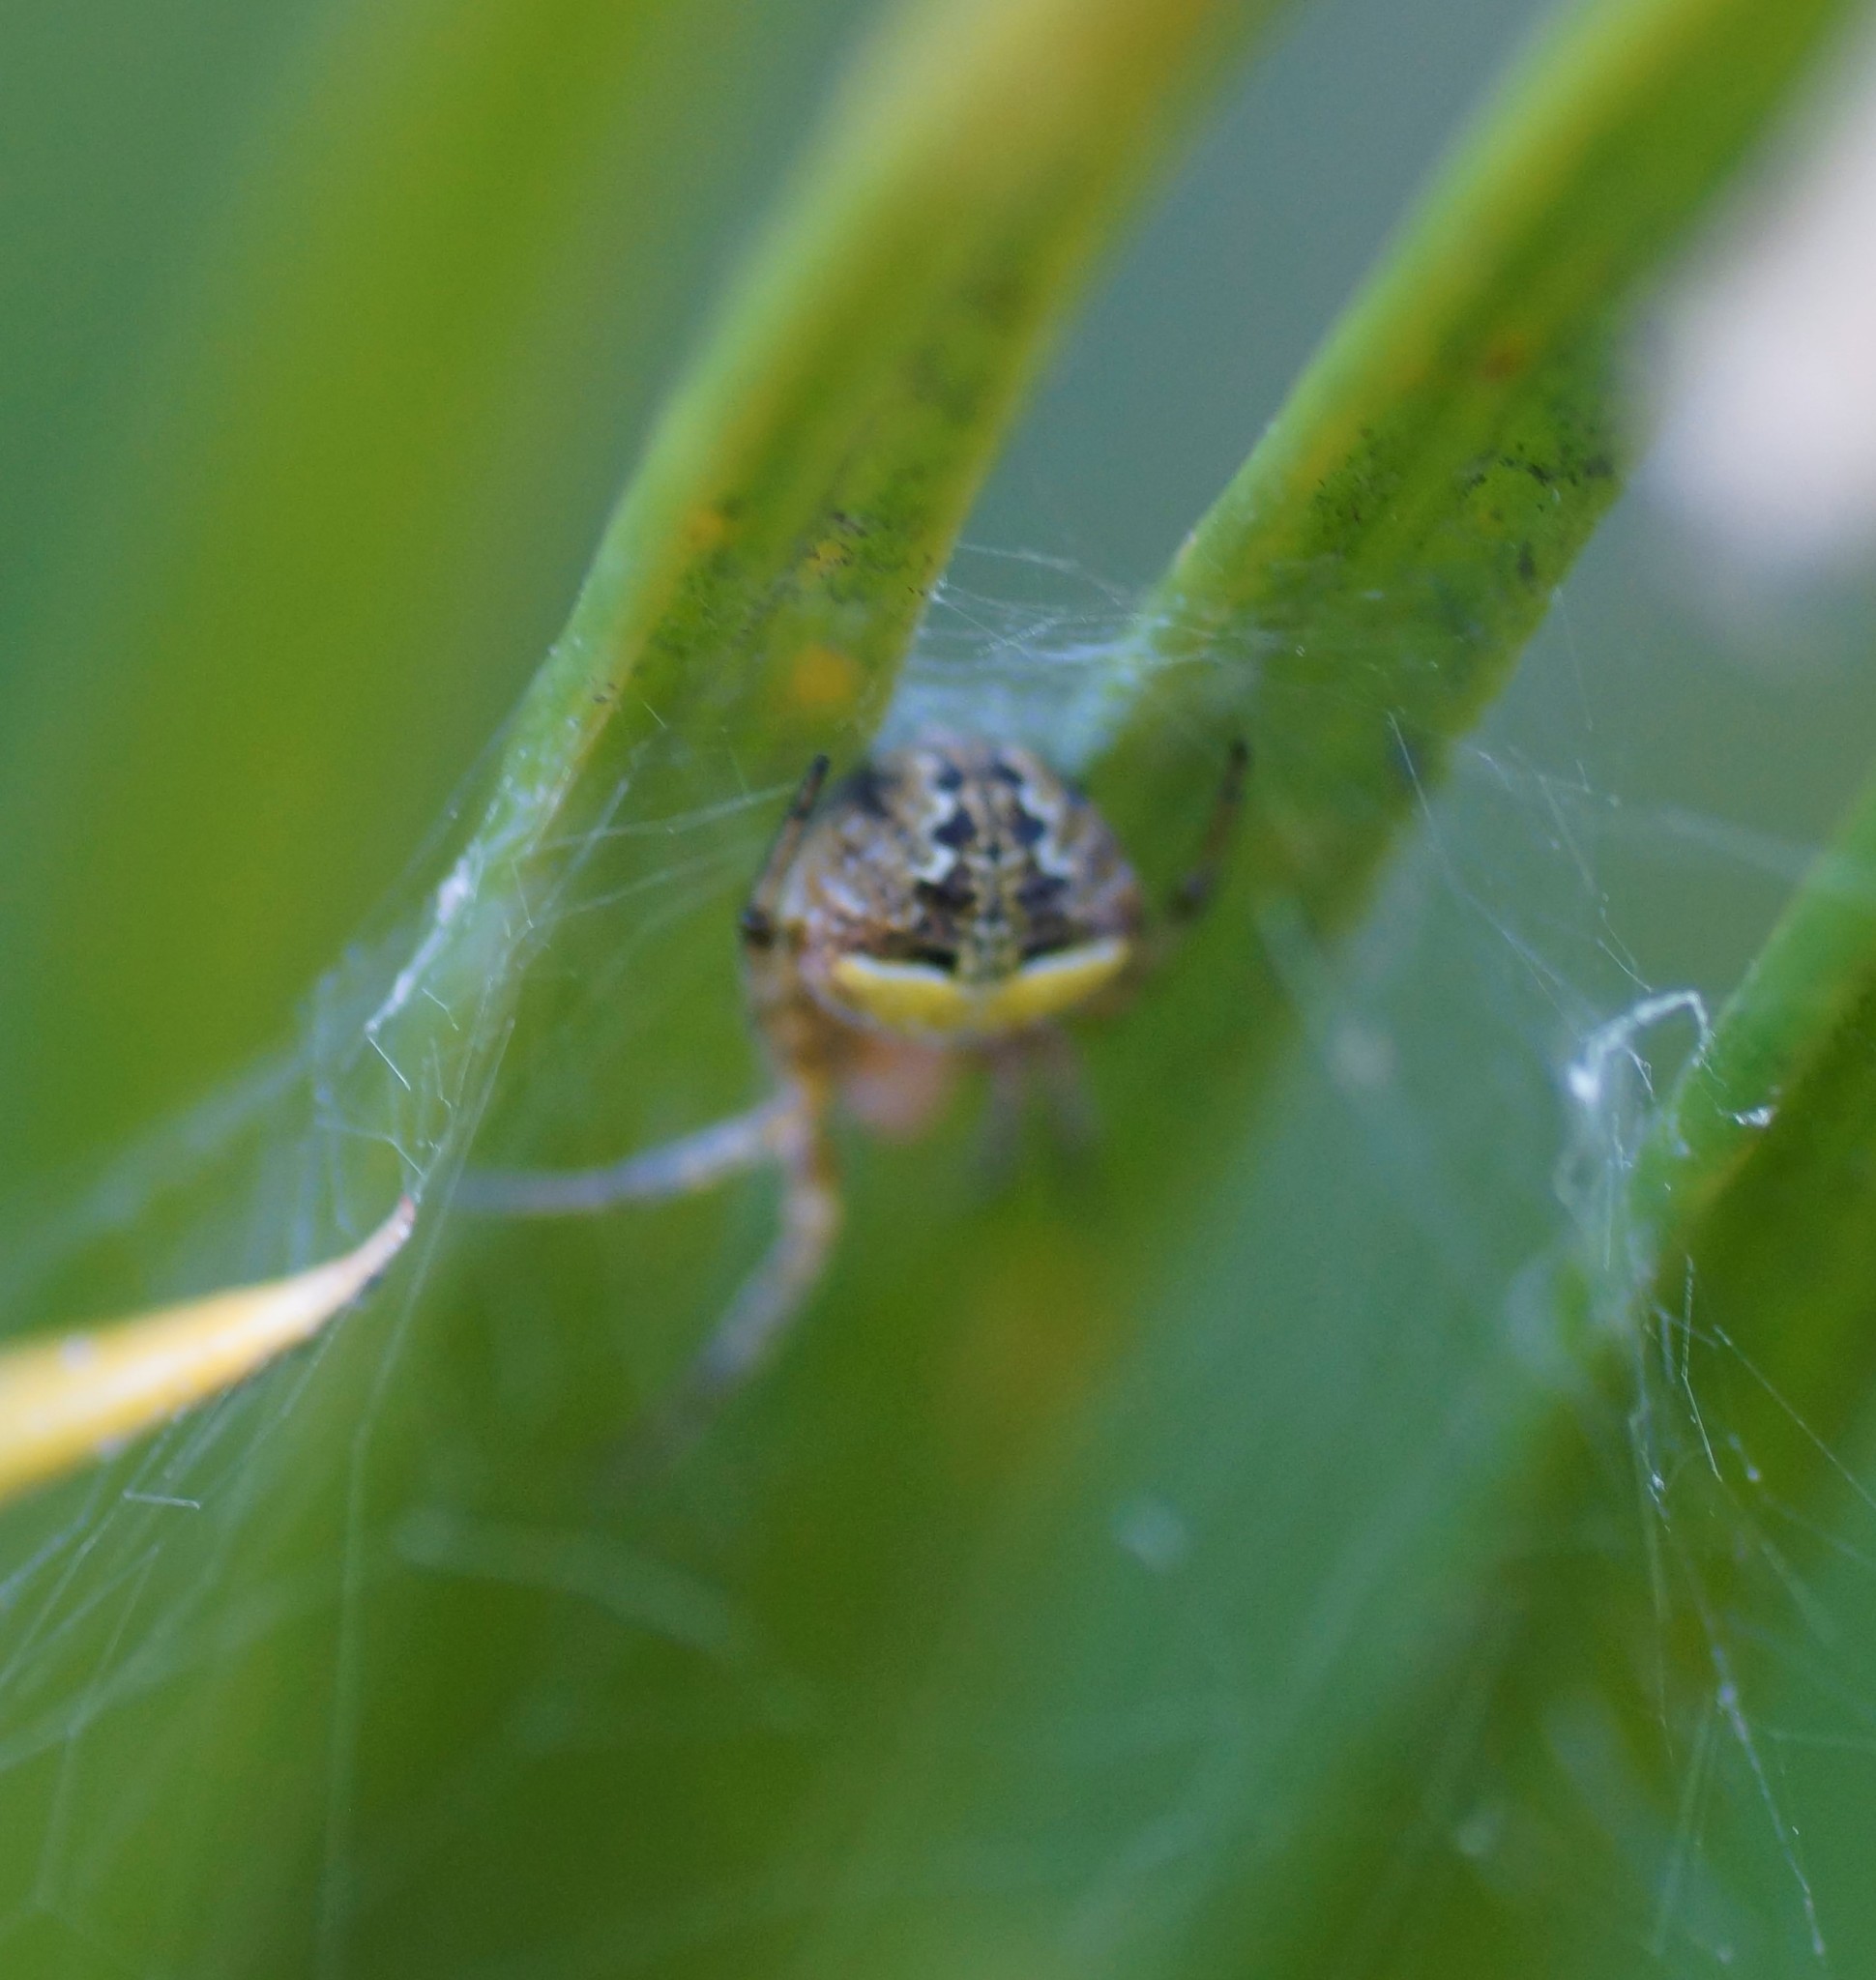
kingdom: Animalia
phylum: Arthropoda
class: Arachnida
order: Araneae
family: Araneidae
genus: Araneus
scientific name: Araneus albotriangulus
